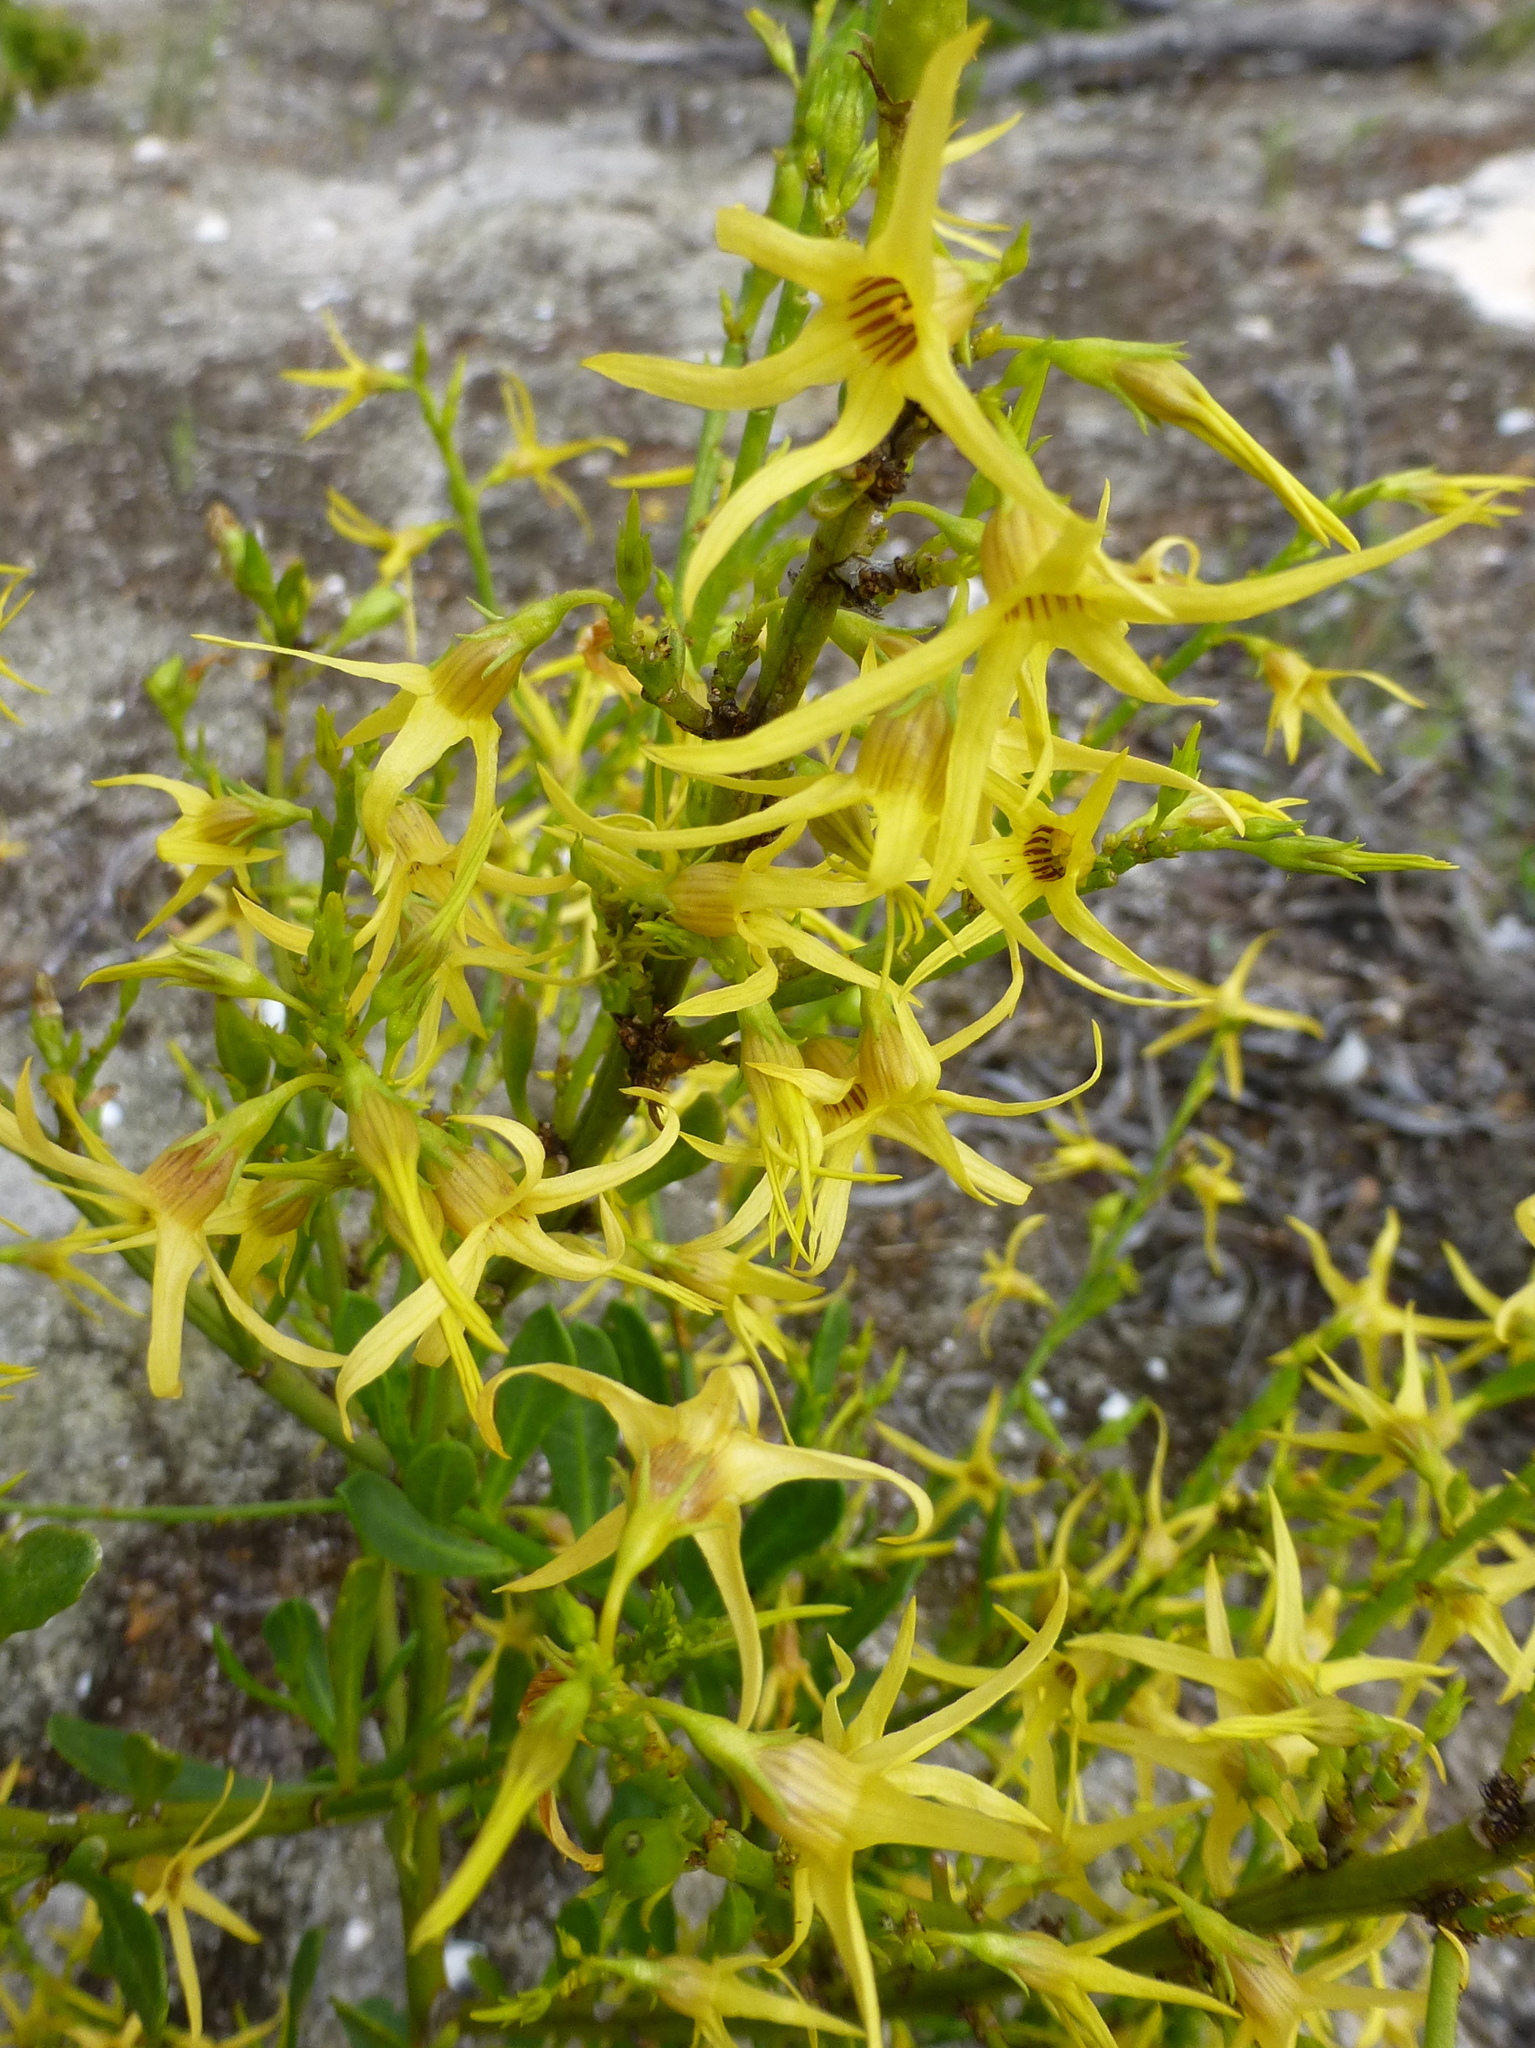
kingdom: Plantae
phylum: Tracheophyta
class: Magnoliopsida
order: Solanales
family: Solanaceae
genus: Anthocercis
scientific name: Anthocercis littorea
